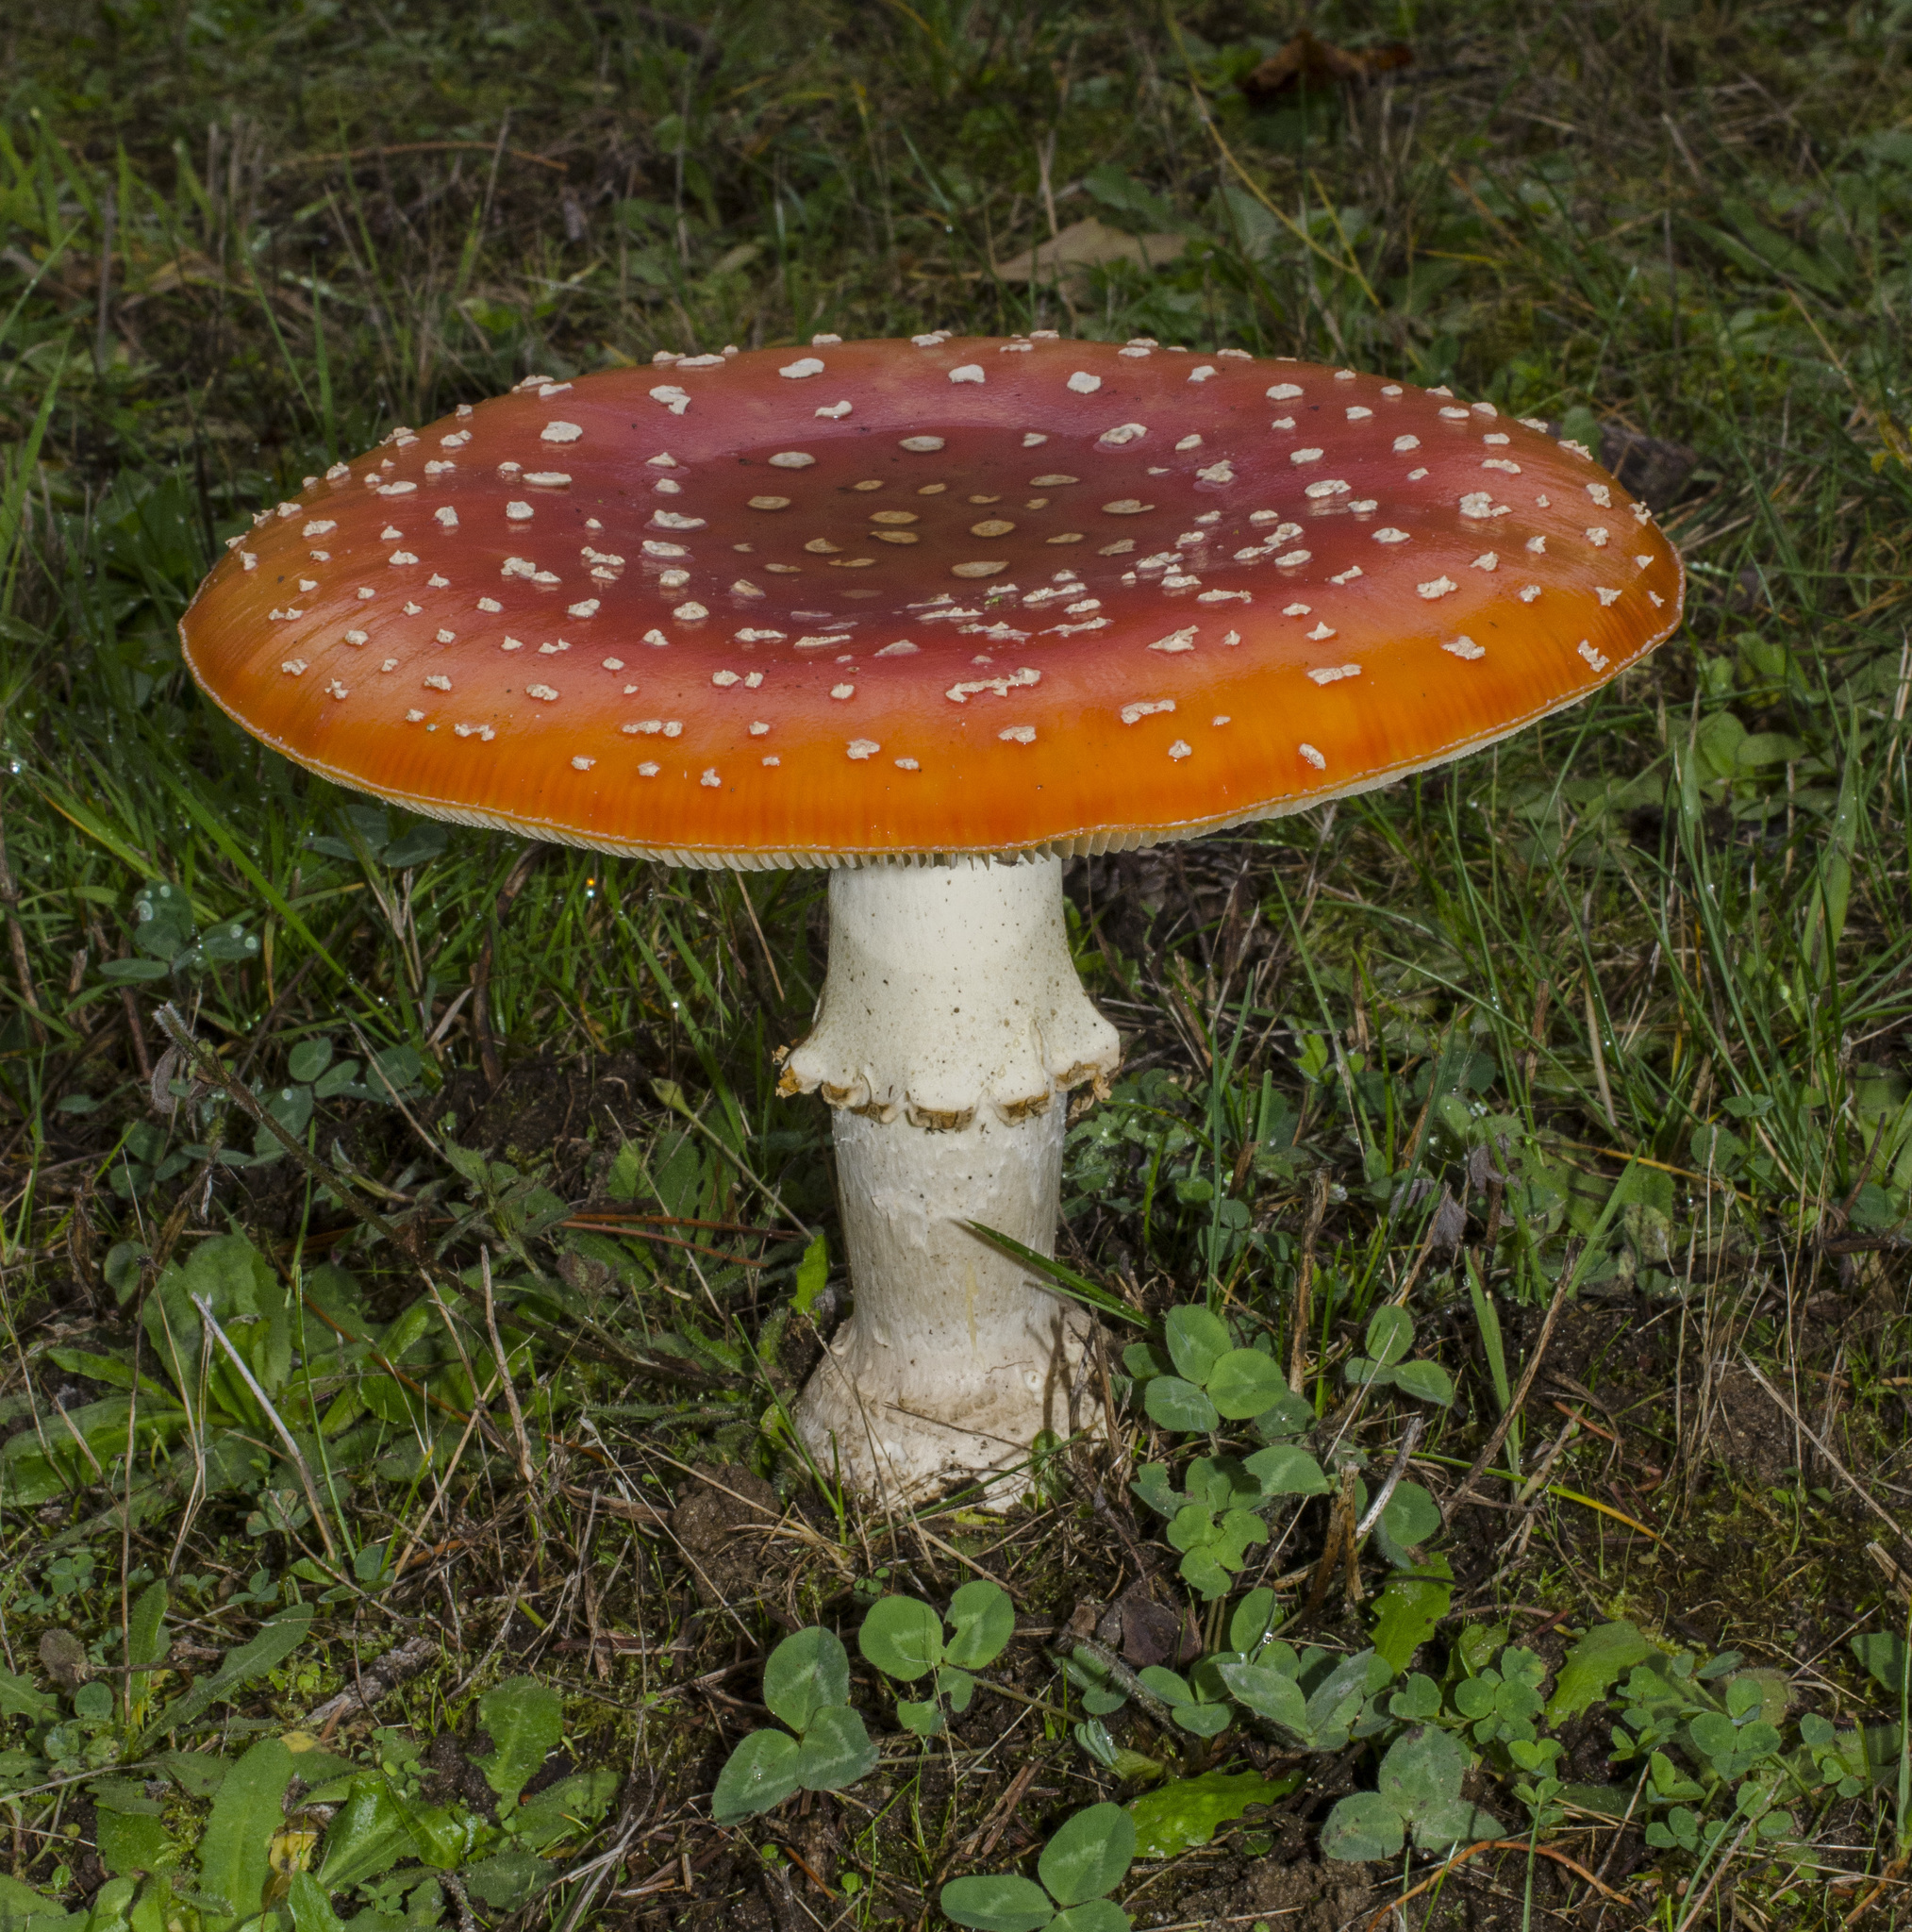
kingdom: Fungi
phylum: Basidiomycota
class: Agaricomycetes
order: Agaricales
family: Amanitaceae
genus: Amanita
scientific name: Amanita muscaria
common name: Fly agaric
